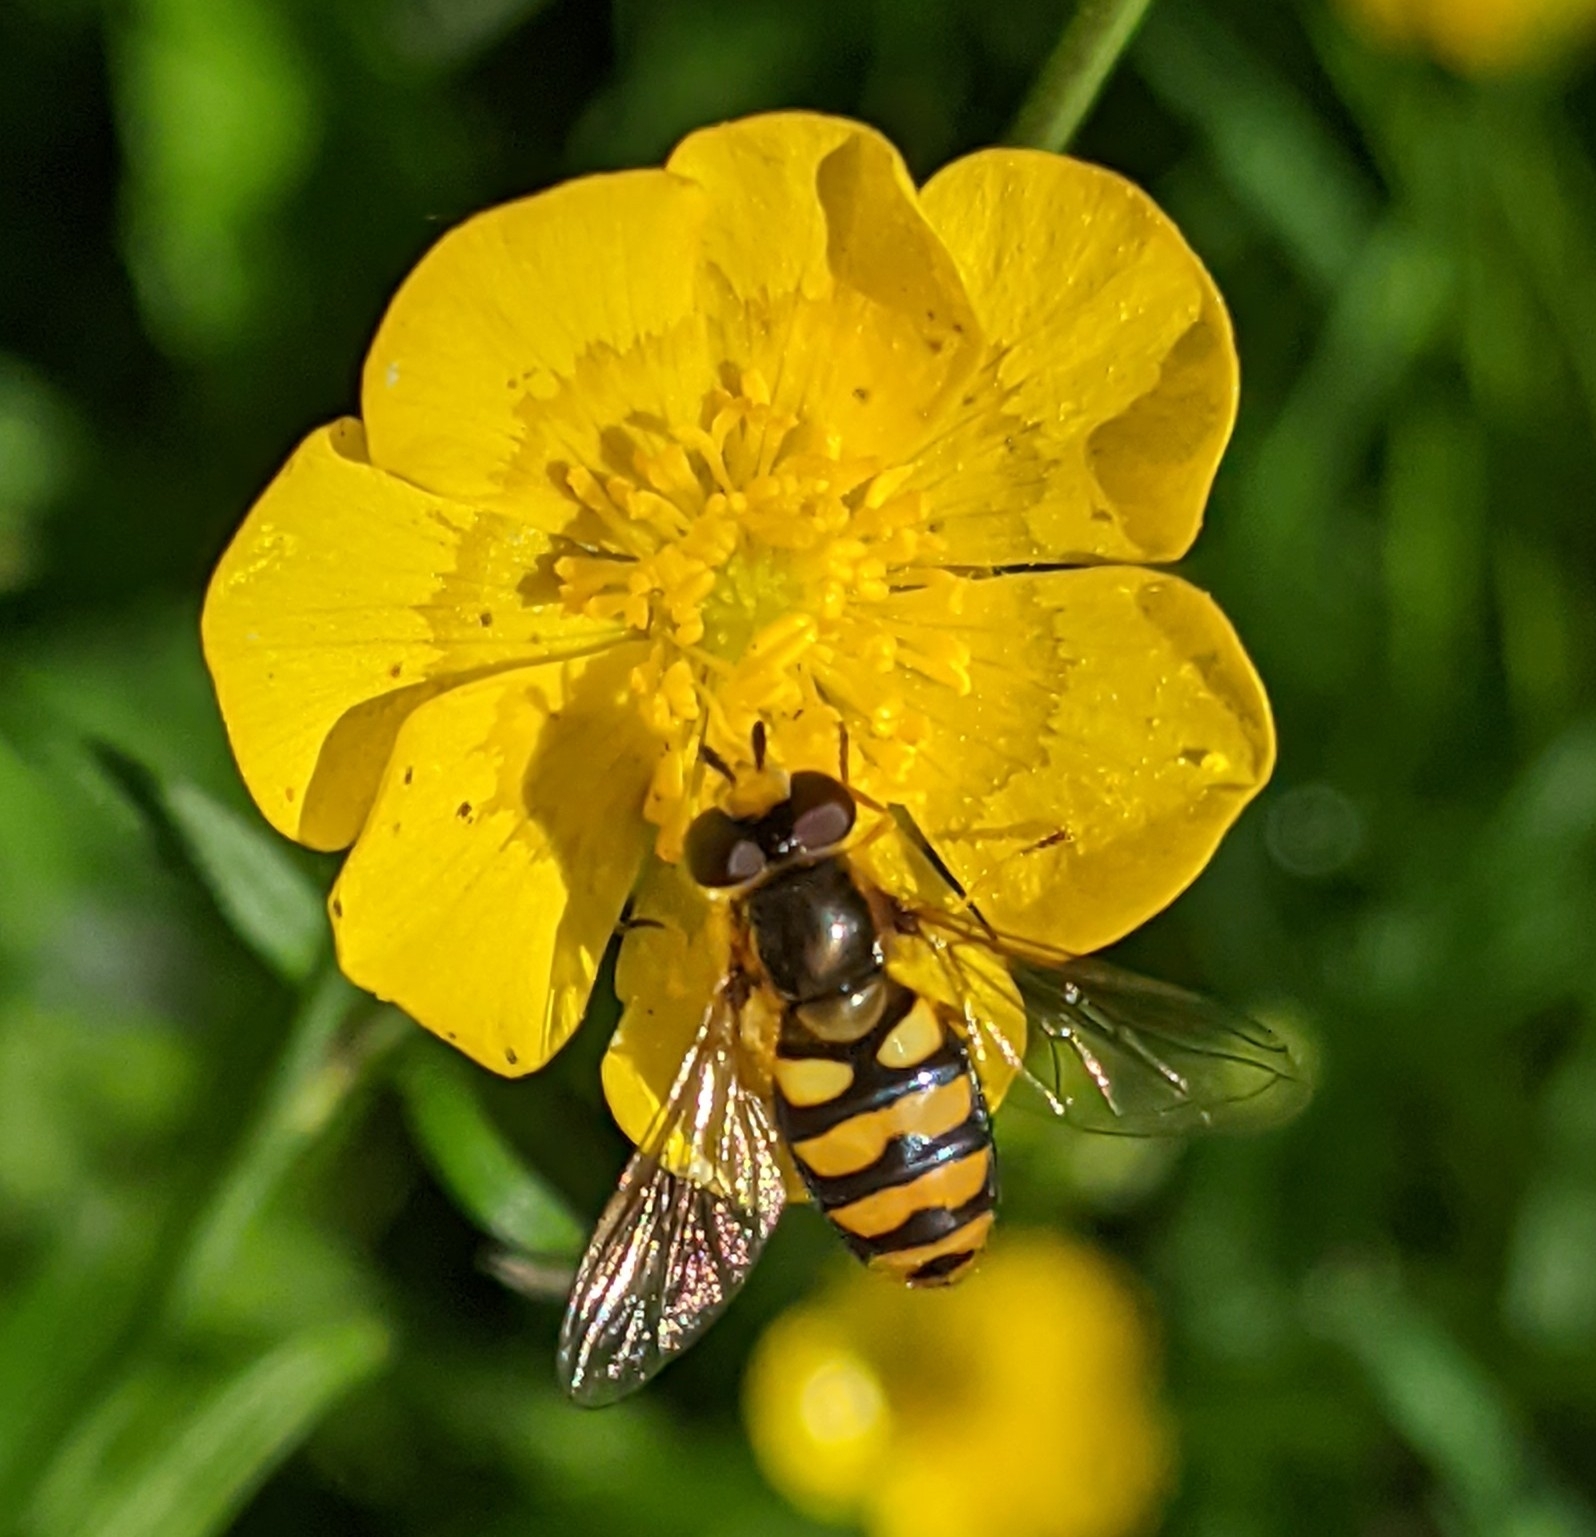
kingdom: Animalia
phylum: Arthropoda
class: Insecta
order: Diptera
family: Syrphidae
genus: Eupeodes
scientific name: Eupeodes
